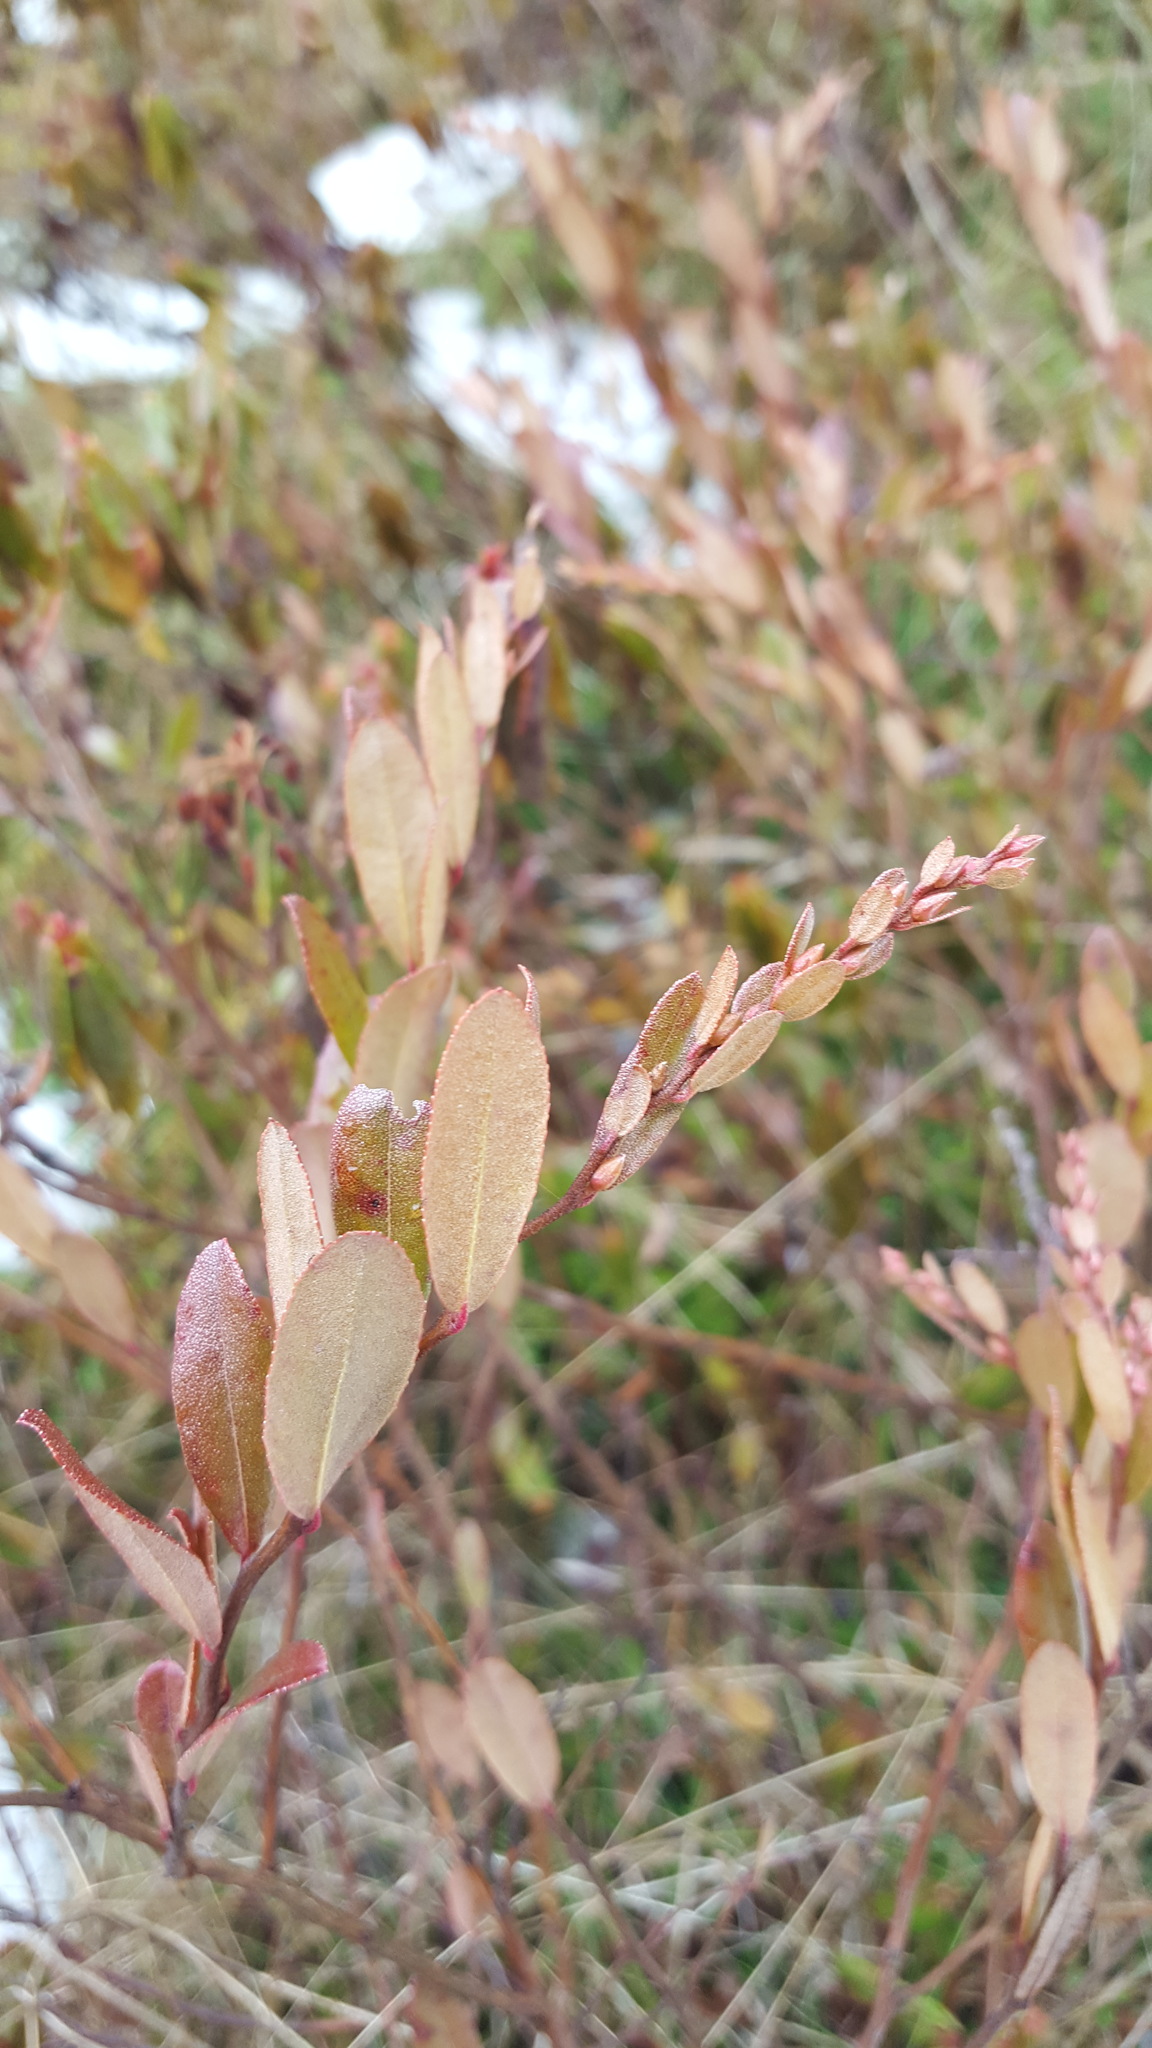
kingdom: Plantae
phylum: Tracheophyta
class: Magnoliopsida
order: Ericales
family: Ericaceae
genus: Chamaedaphne
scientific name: Chamaedaphne calyculata
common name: Leatherleaf
